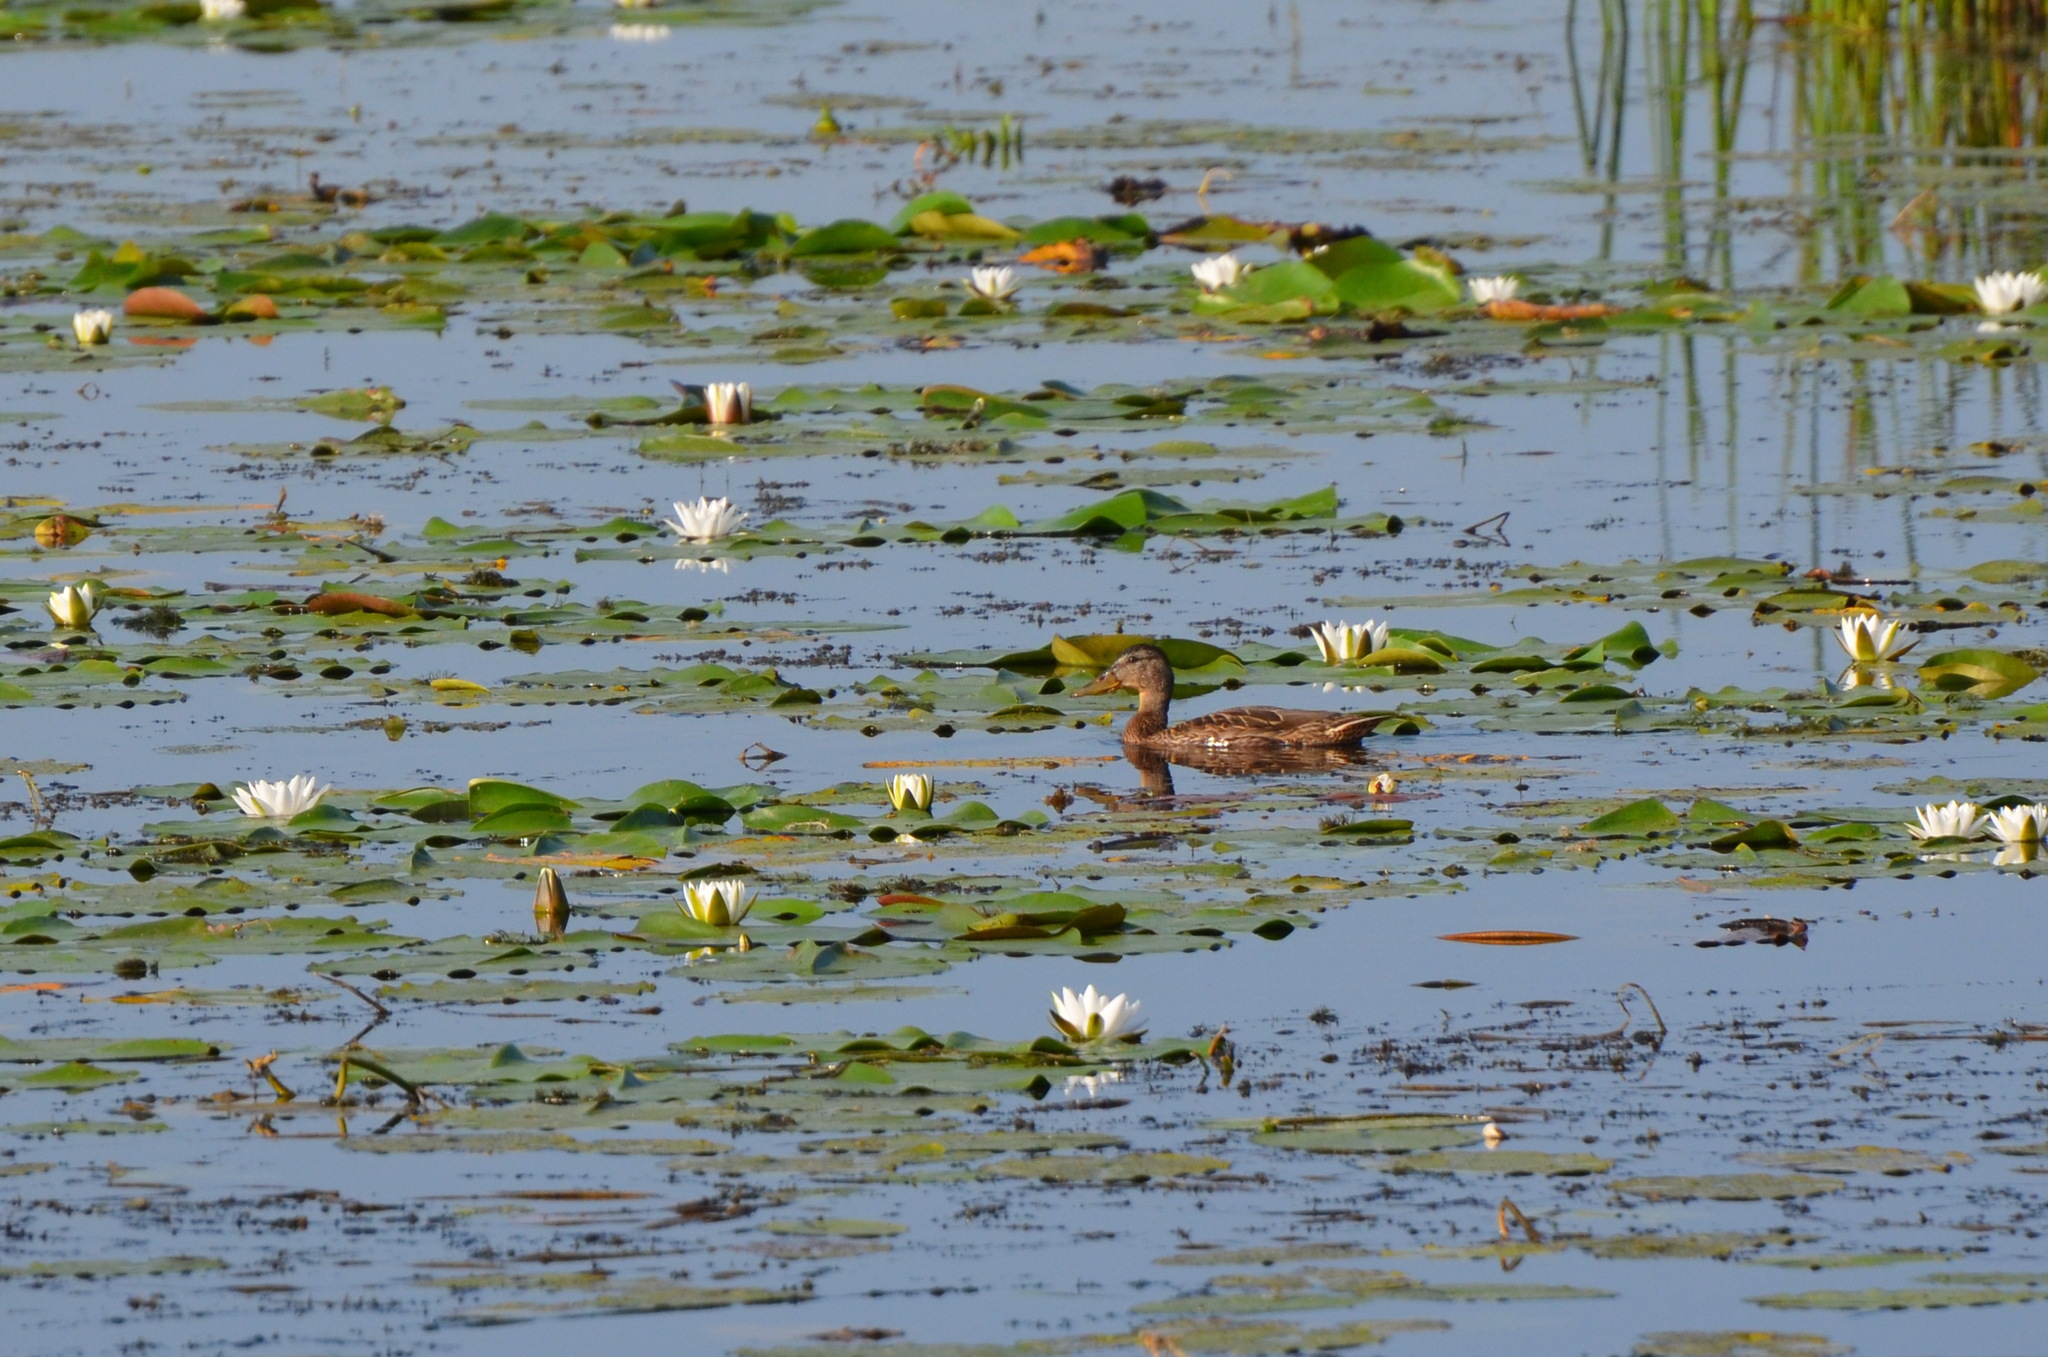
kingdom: Animalia
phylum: Chordata
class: Aves
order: Anseriformes
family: Anatidae
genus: Anas
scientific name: Anas platyrhynchos
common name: Mallard
